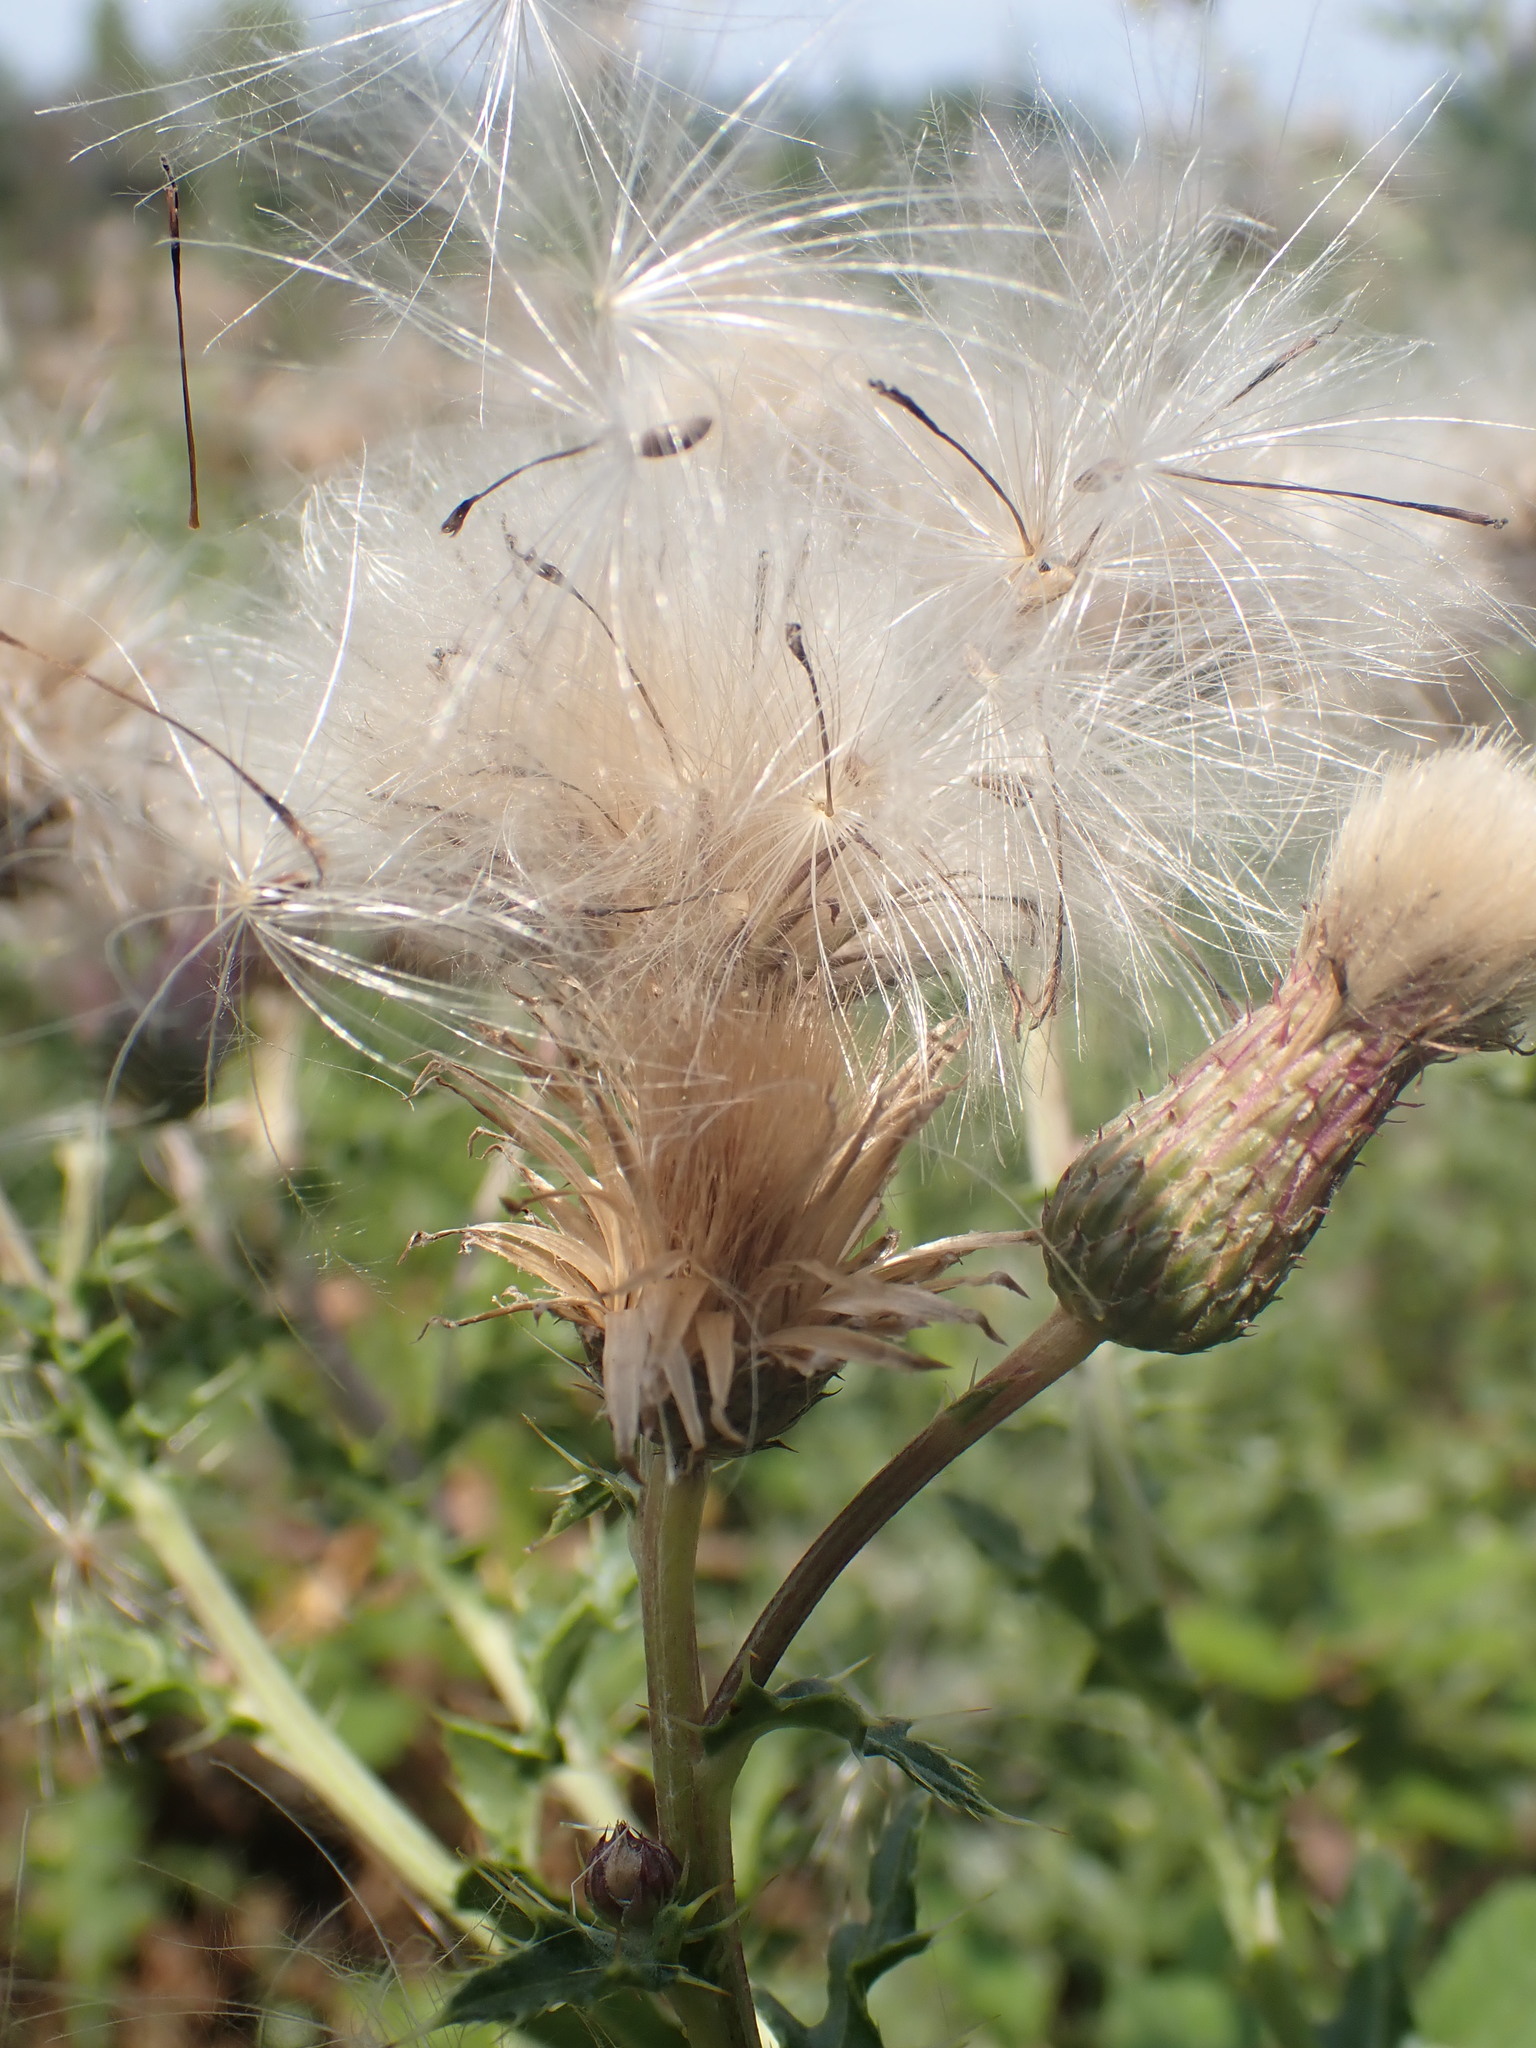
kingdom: Plantae
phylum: Tracheophyta
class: Magnoliopsida
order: Asterales
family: Asteraceae
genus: Cirsium
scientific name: Cirsium arvense
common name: Creeping thistle
